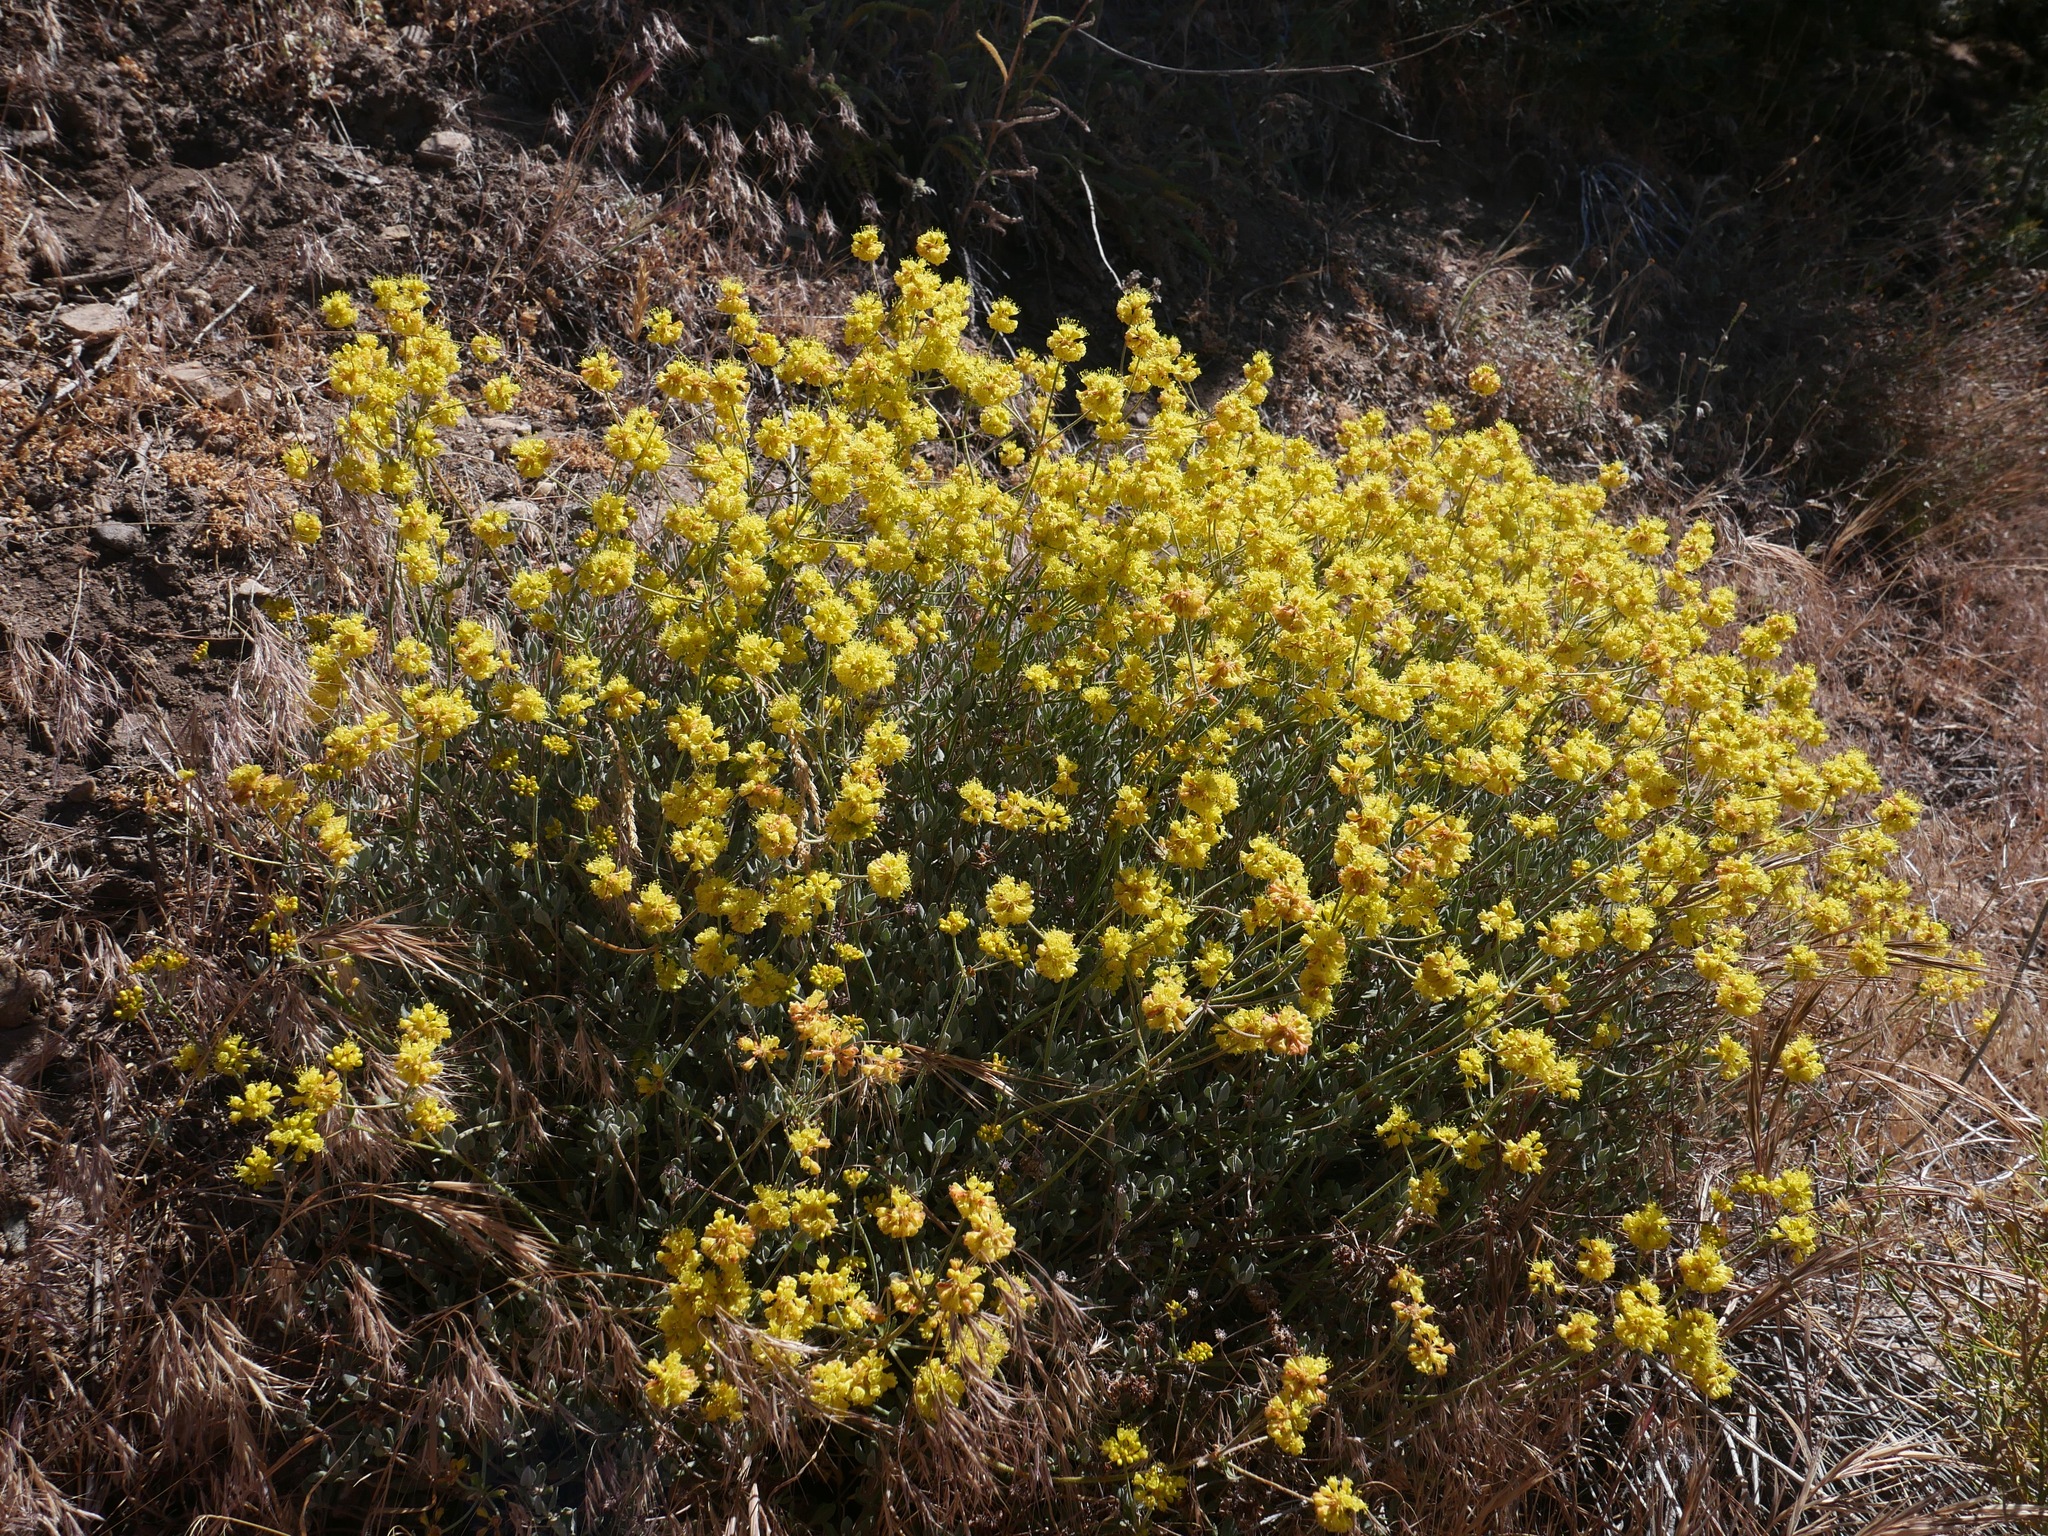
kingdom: Plantae
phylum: Tracheophyta
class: Magnoliopsida
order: Caryophyllales
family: Polygonaceae
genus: Eriogonum
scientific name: Eriogonum umbellatum
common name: Sulfur-buckwheat
